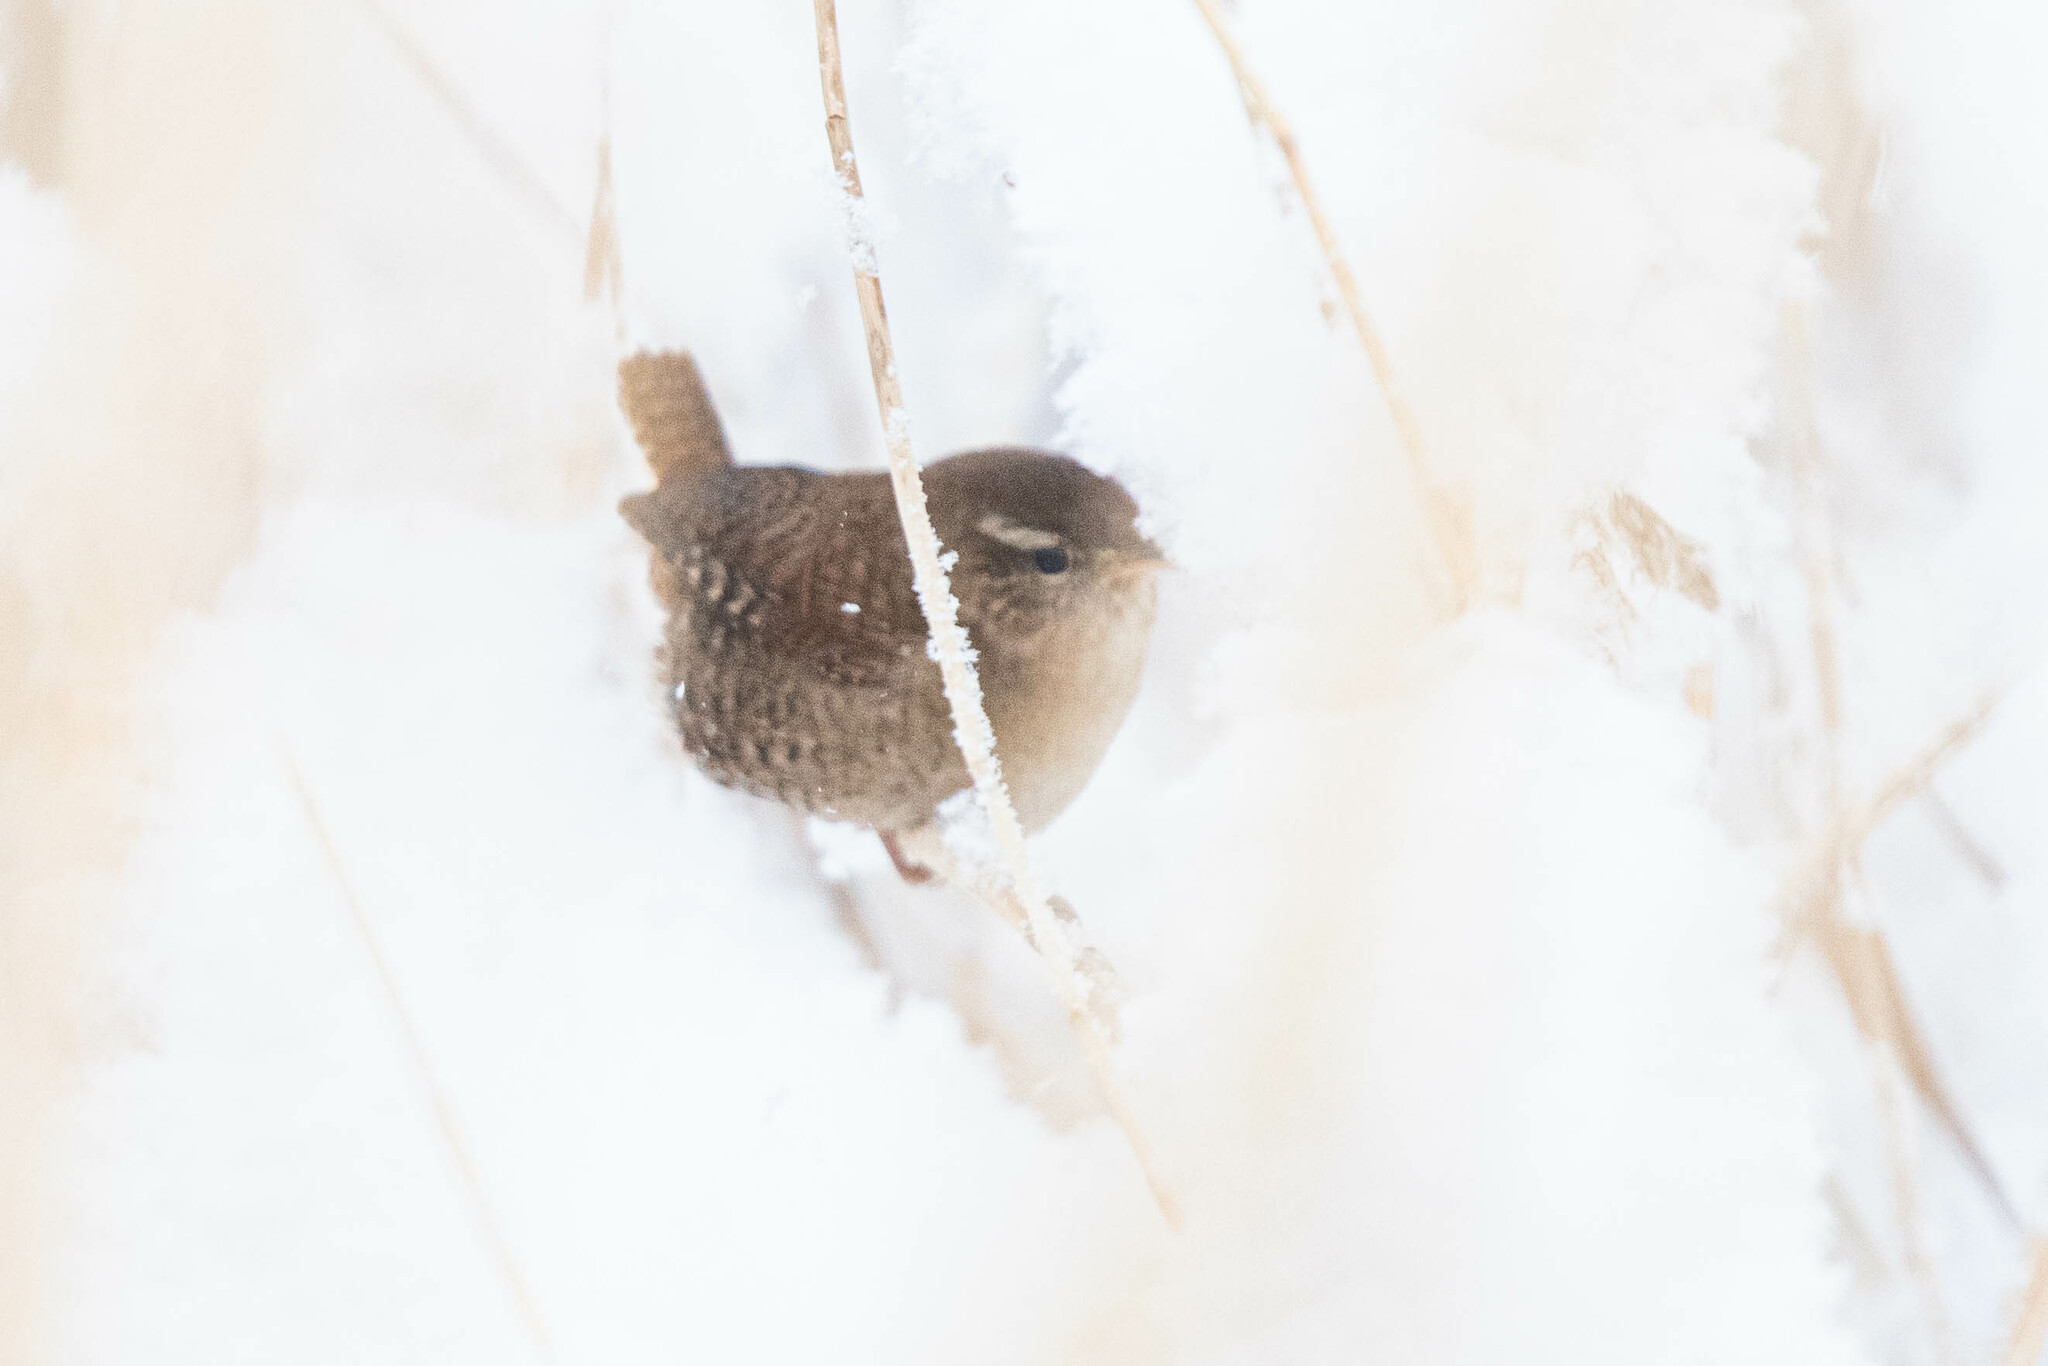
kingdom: Animalia
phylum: Chordata
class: Aves
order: Passeriformes
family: Troglodytidae
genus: Troglodytes
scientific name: Troglodytes troglodytes
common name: Eurasian wren
